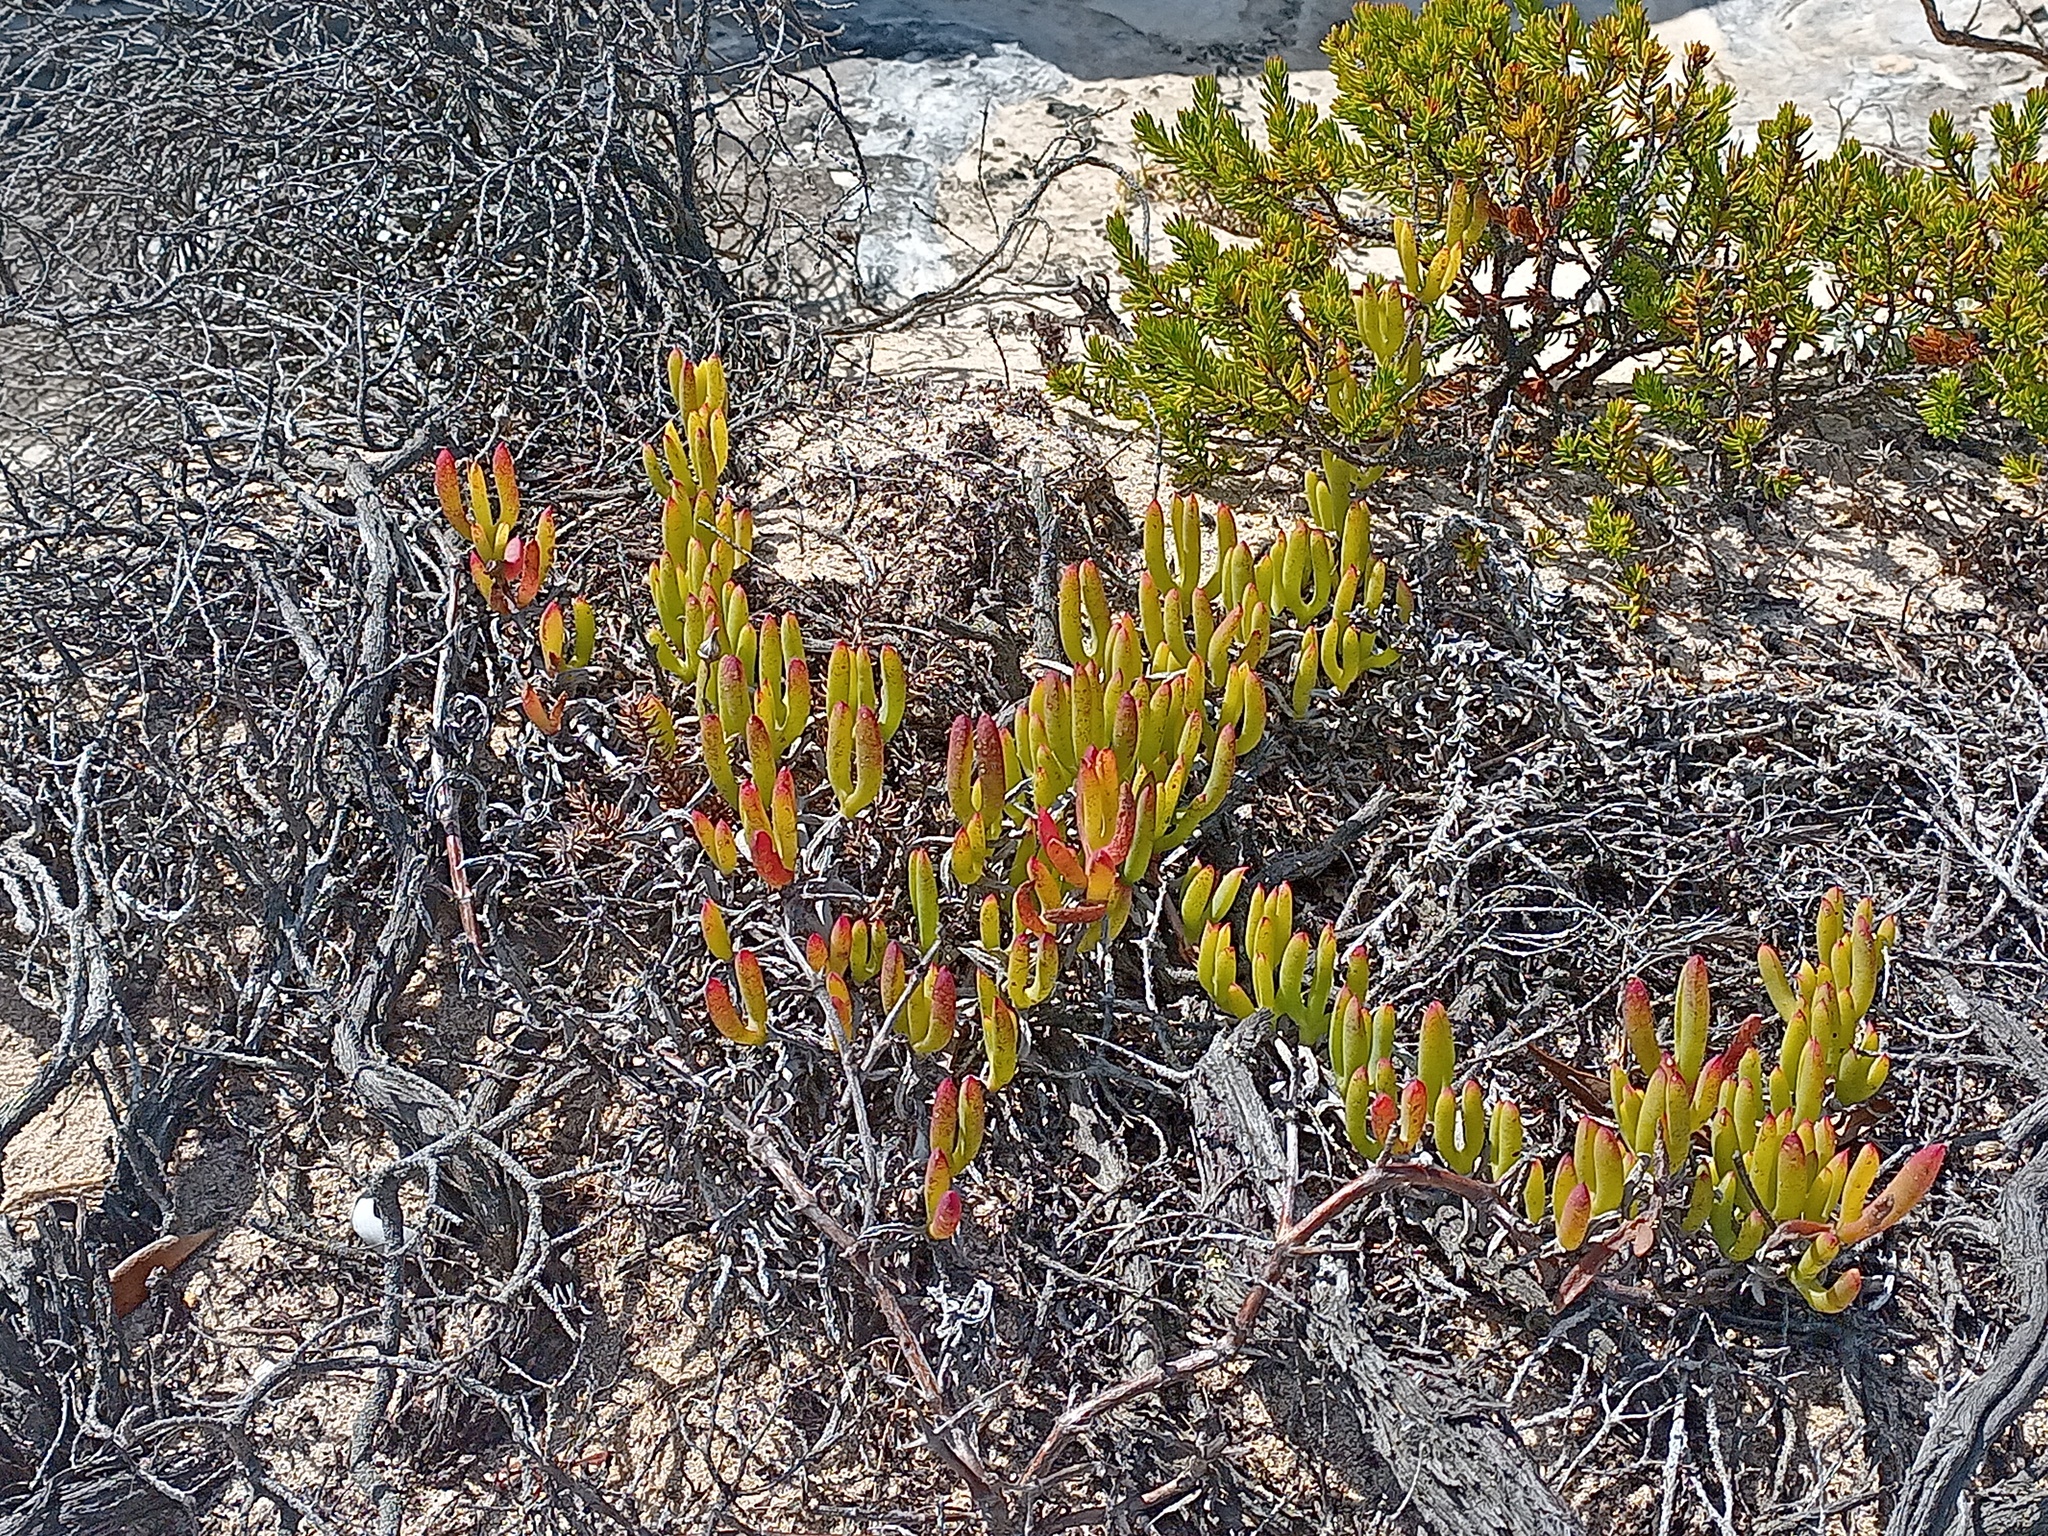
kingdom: Plantae
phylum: Tracheophyta
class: Magnoliopsida
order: Caryophyllales
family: Aizoaceae
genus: Ruschia
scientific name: Ruschia macowanii
